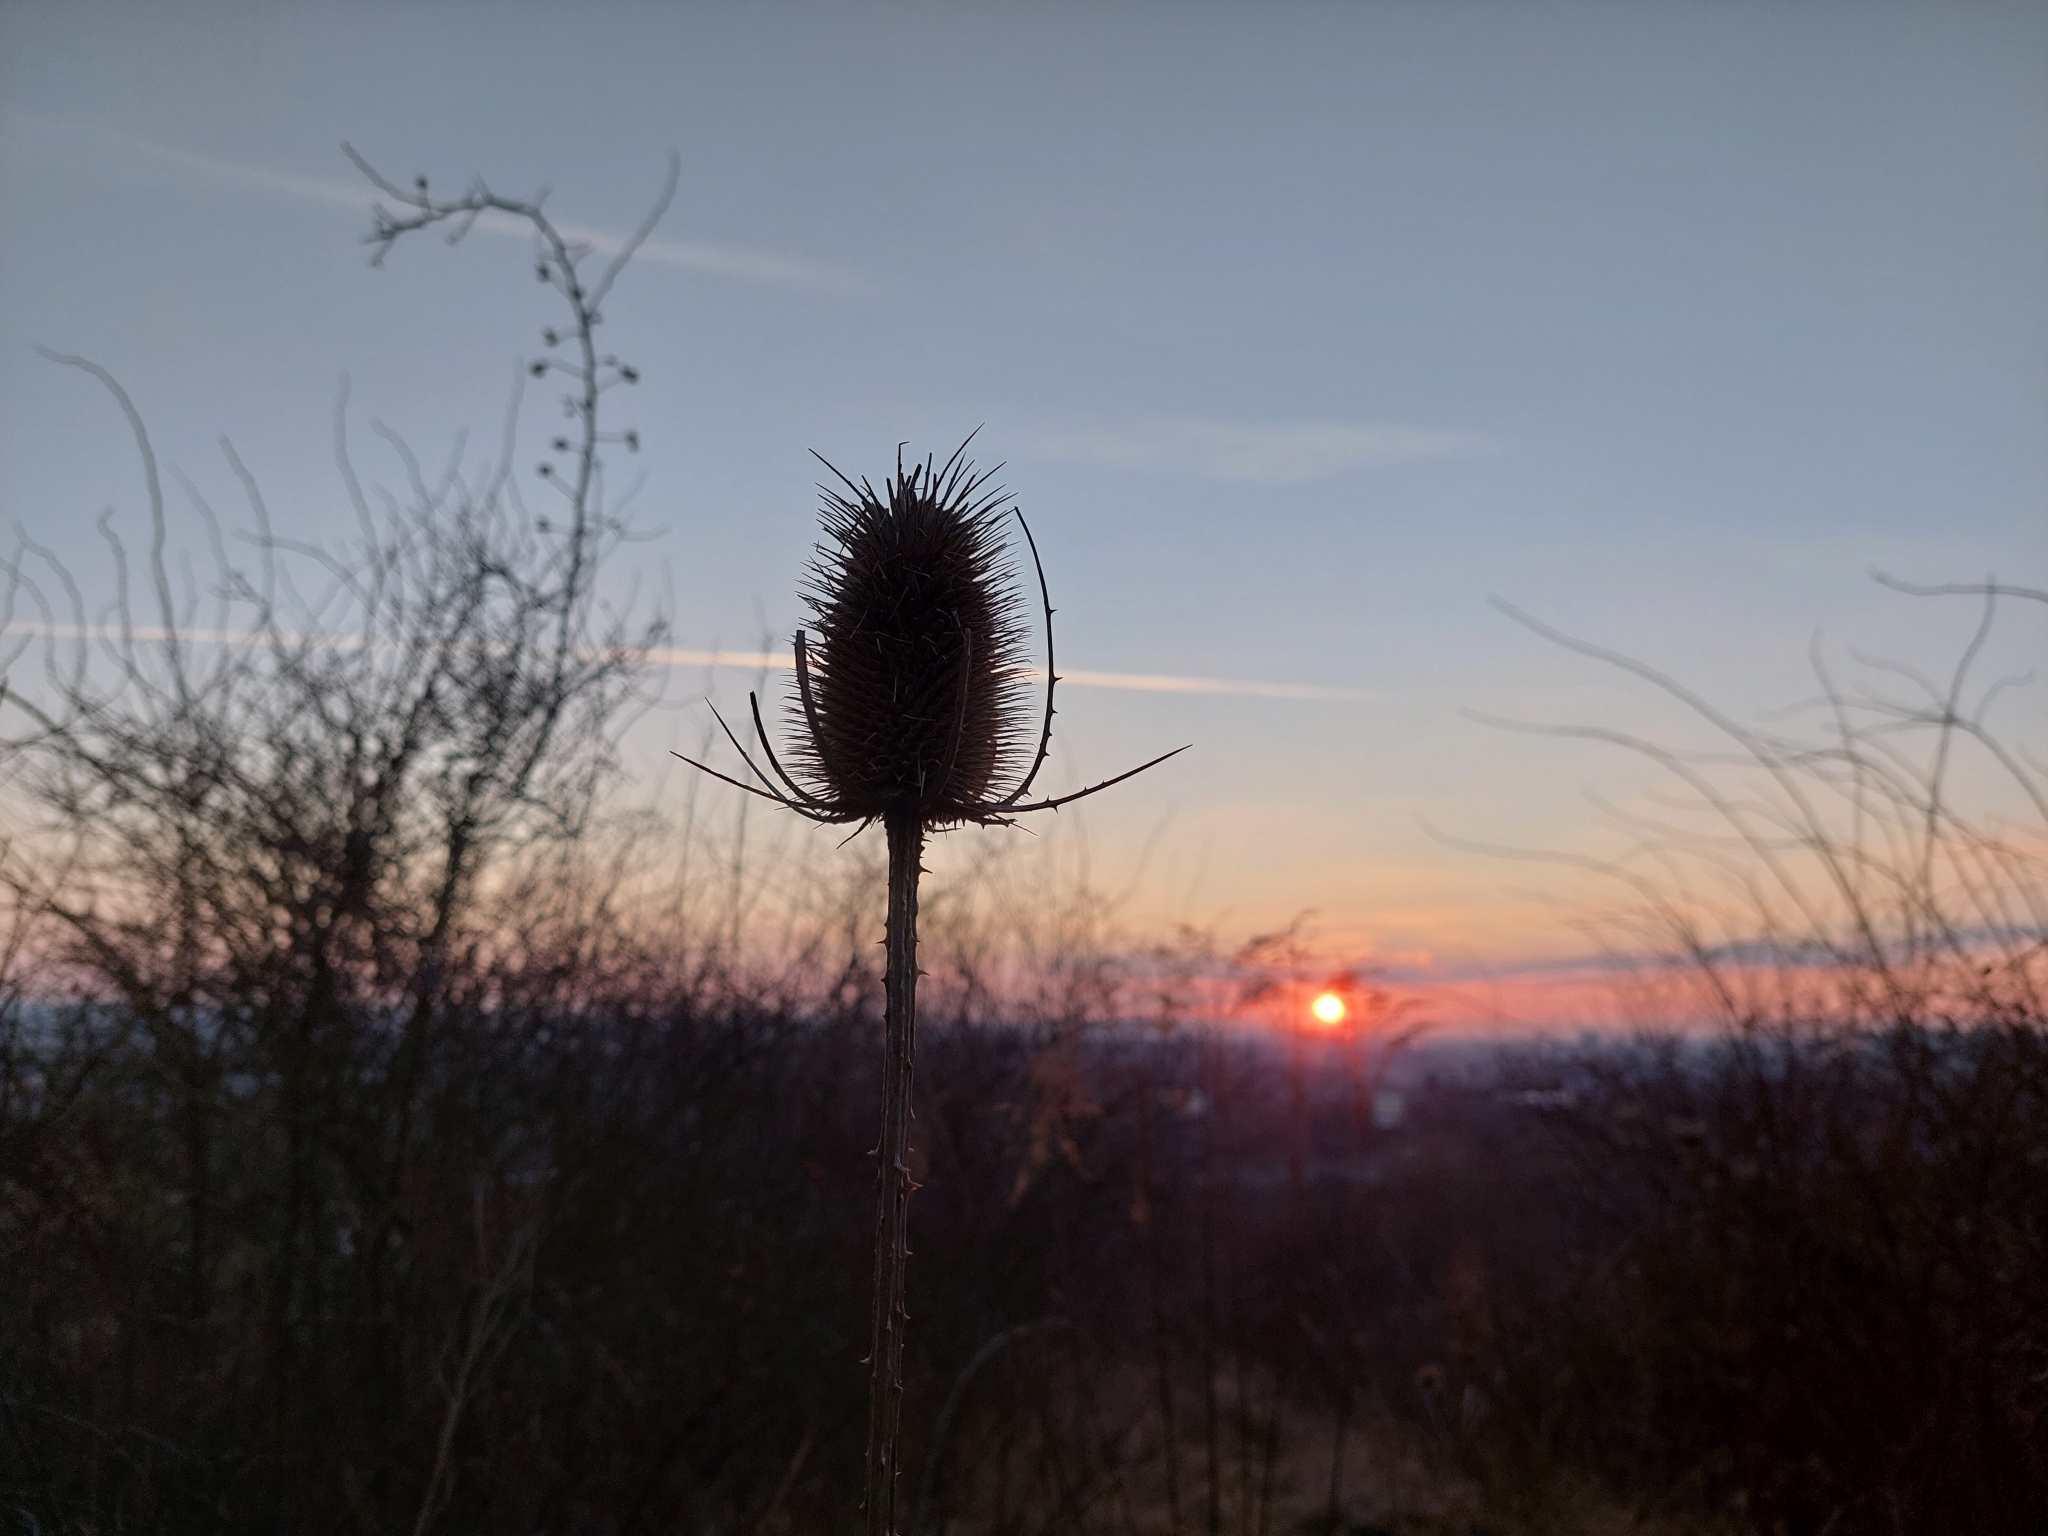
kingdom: Plantae
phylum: Tracheophyta
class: Magnoliopsida
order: Dipsacales
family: Caprifoliaceae
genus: Dipsacus
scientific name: Dipsacus fullonum
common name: Teasel
